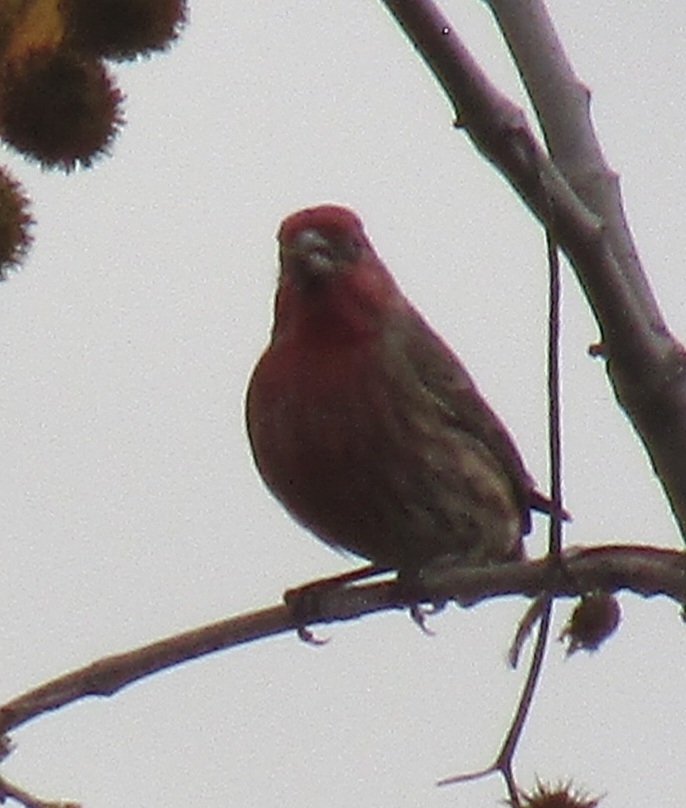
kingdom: Animalia
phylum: Chordata
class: Aves
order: Passeriformes
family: Fringillidae
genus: Haemorhous
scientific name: Haemorhous mexicanus
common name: House finch
